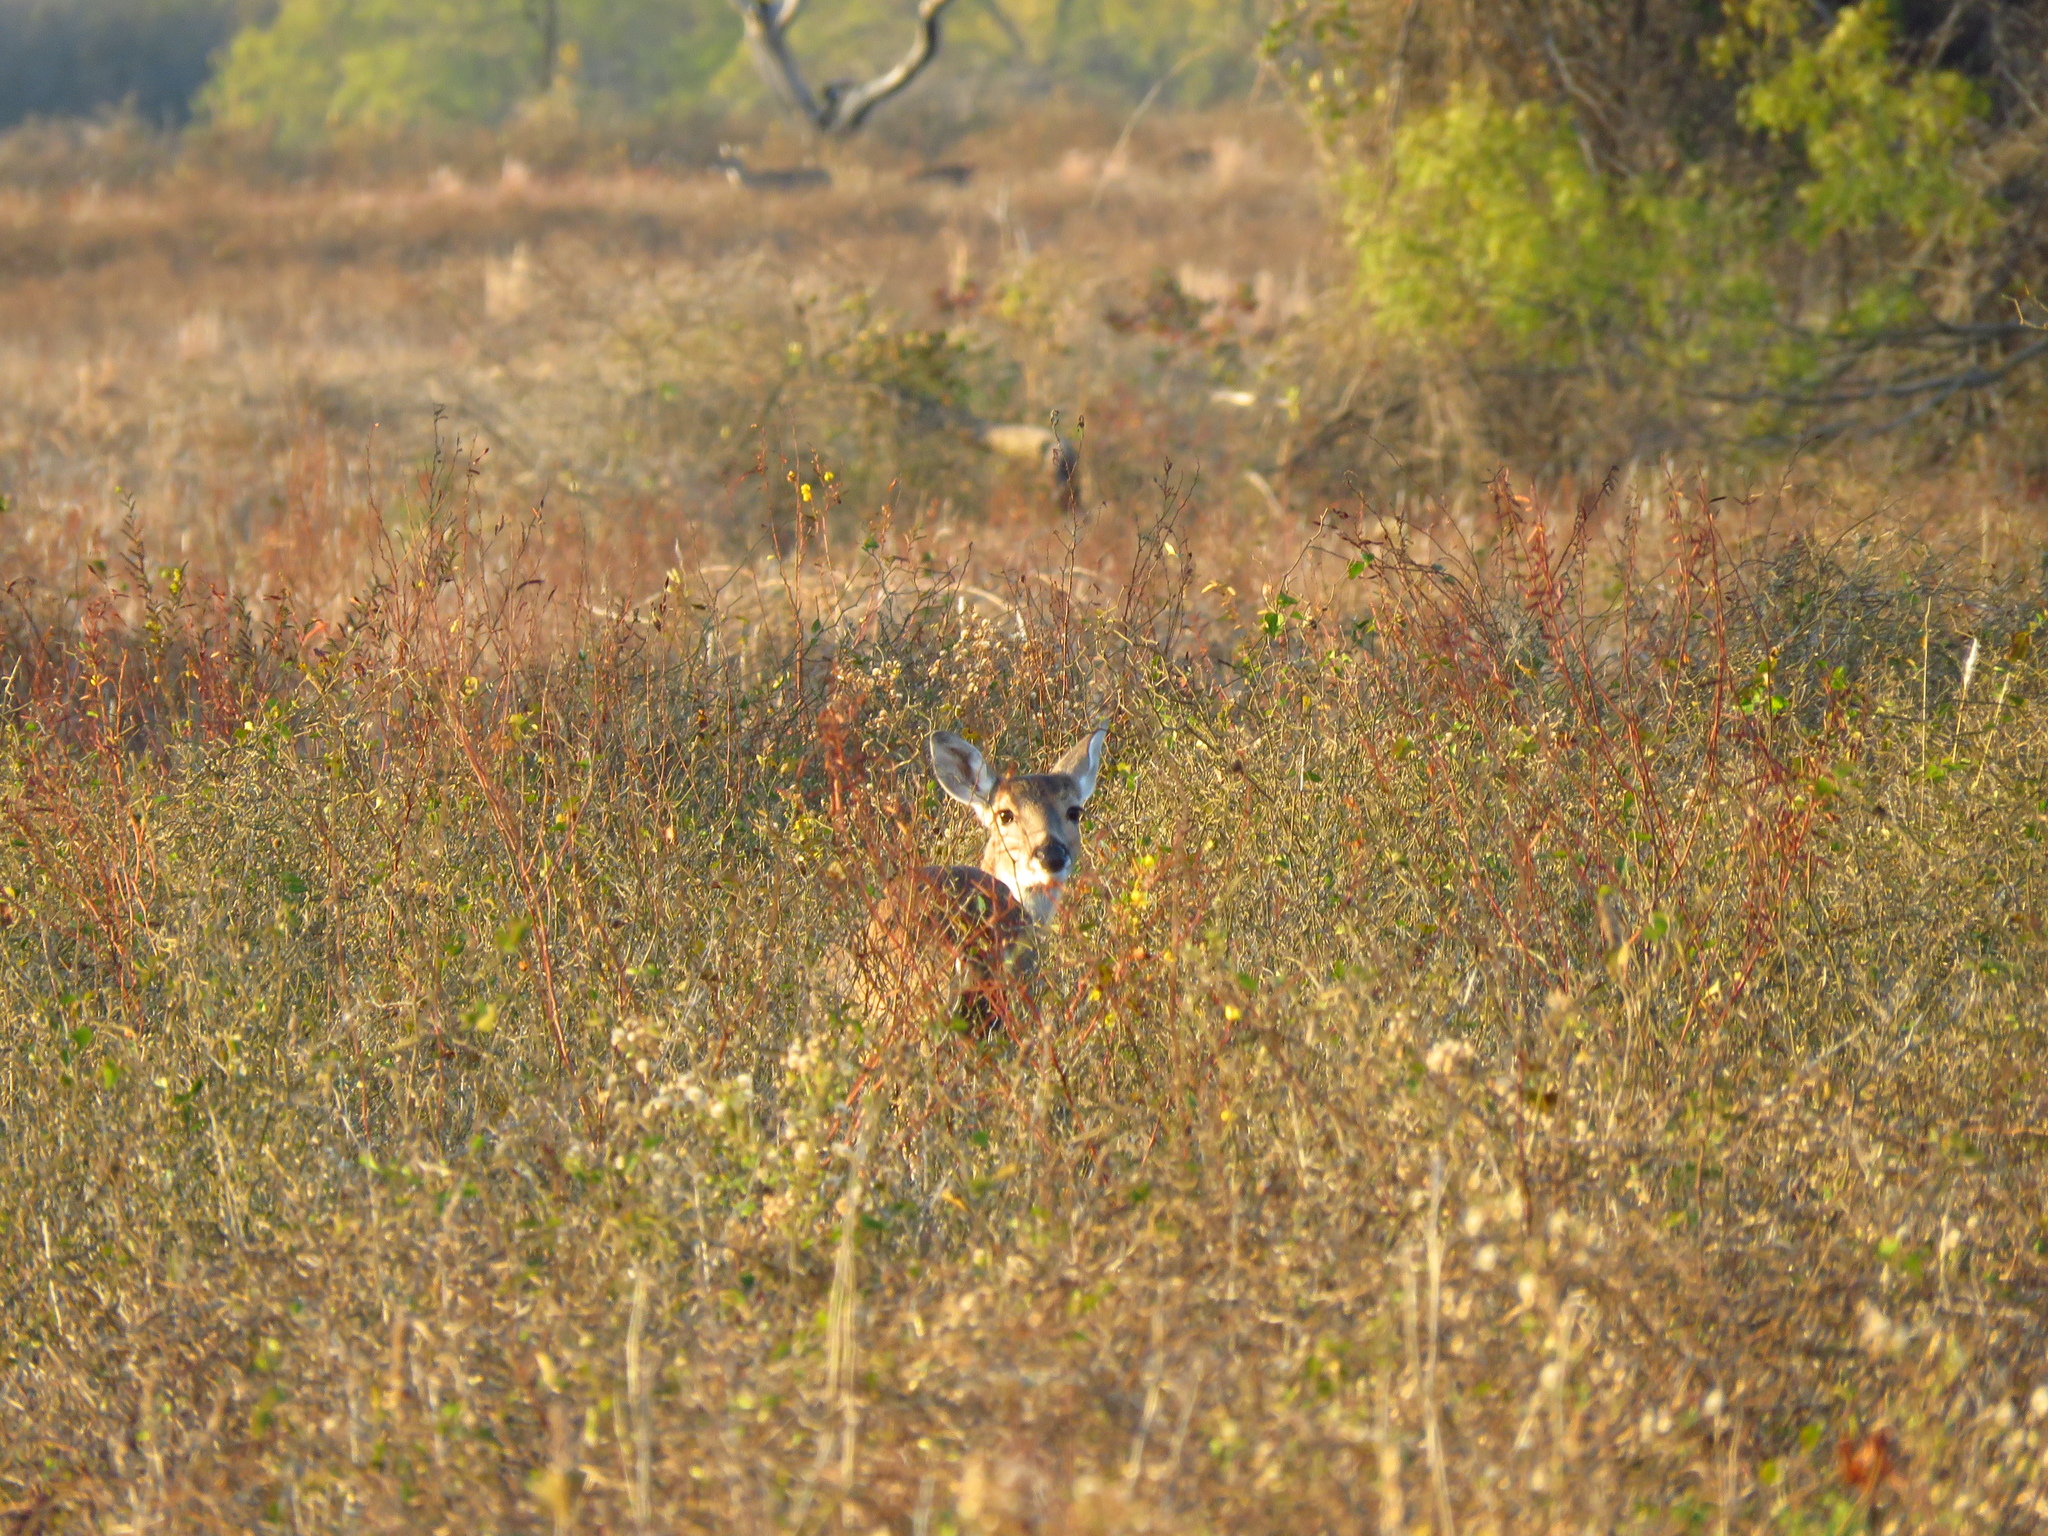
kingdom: Animalia
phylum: Chordata
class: Mammalia
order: Artiodactyla
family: Cervidae
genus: Odocoileus
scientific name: Odocoileus virginianus
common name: White-tailed deer
